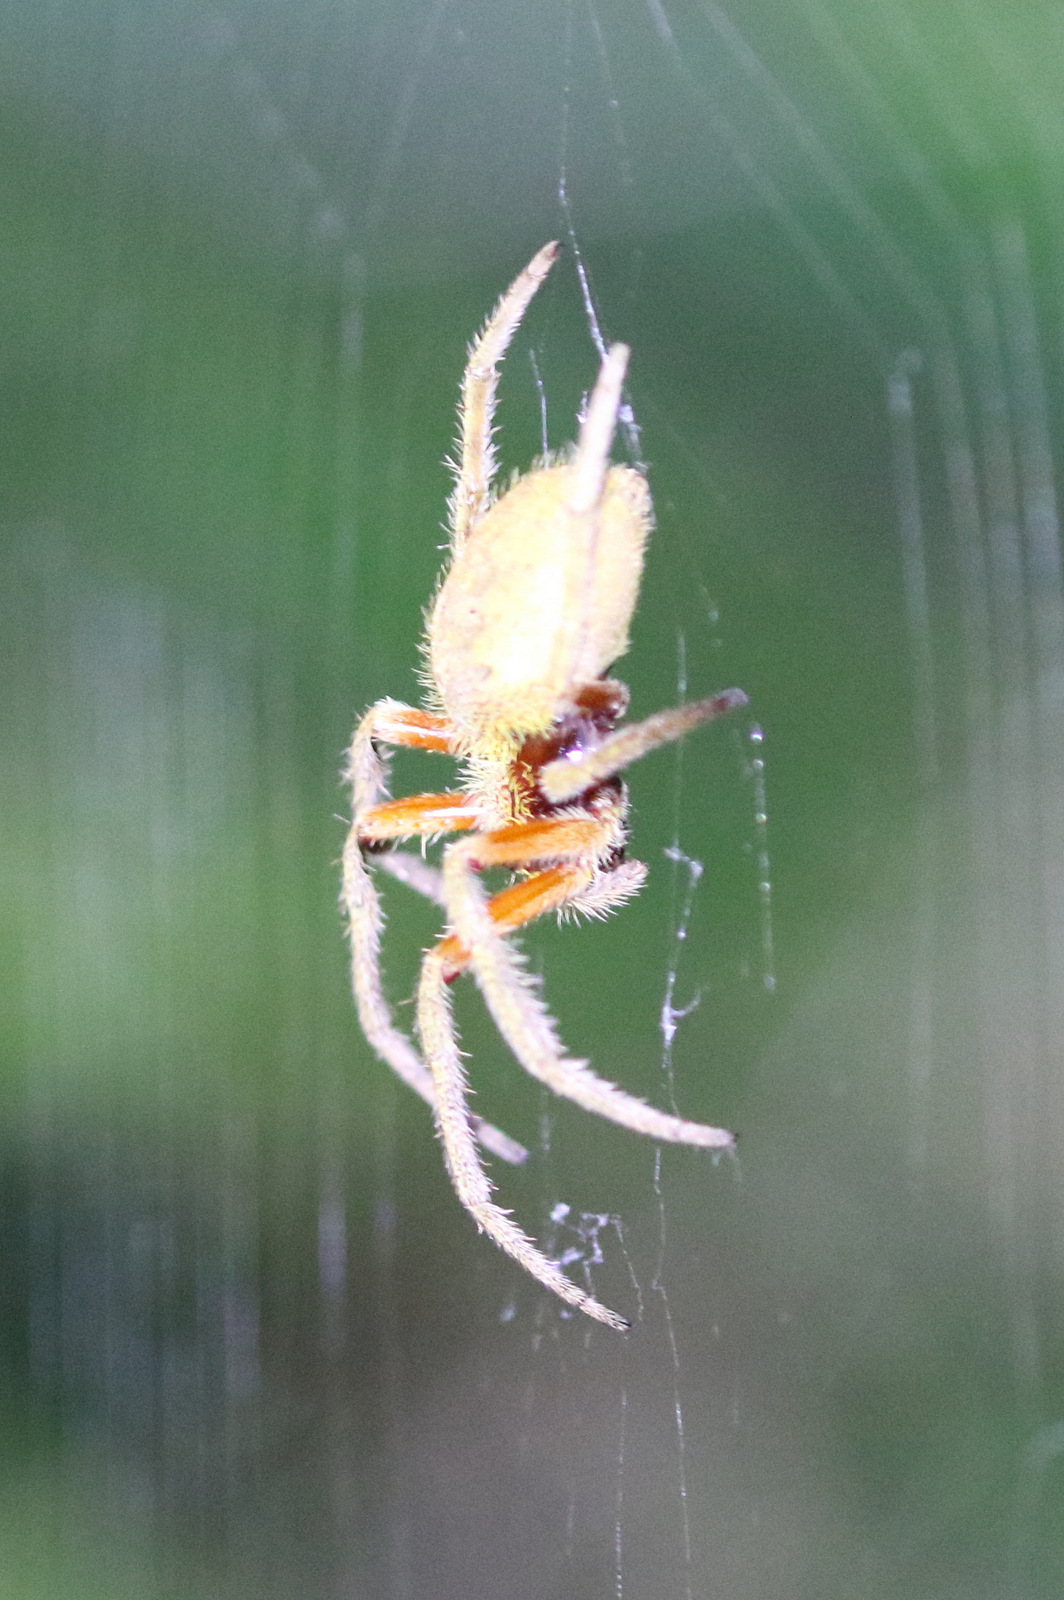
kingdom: Animalia
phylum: Arthropoda
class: Arachnida
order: Araneae
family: Araneidae
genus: Hortophora
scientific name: Hortophora transmarina
